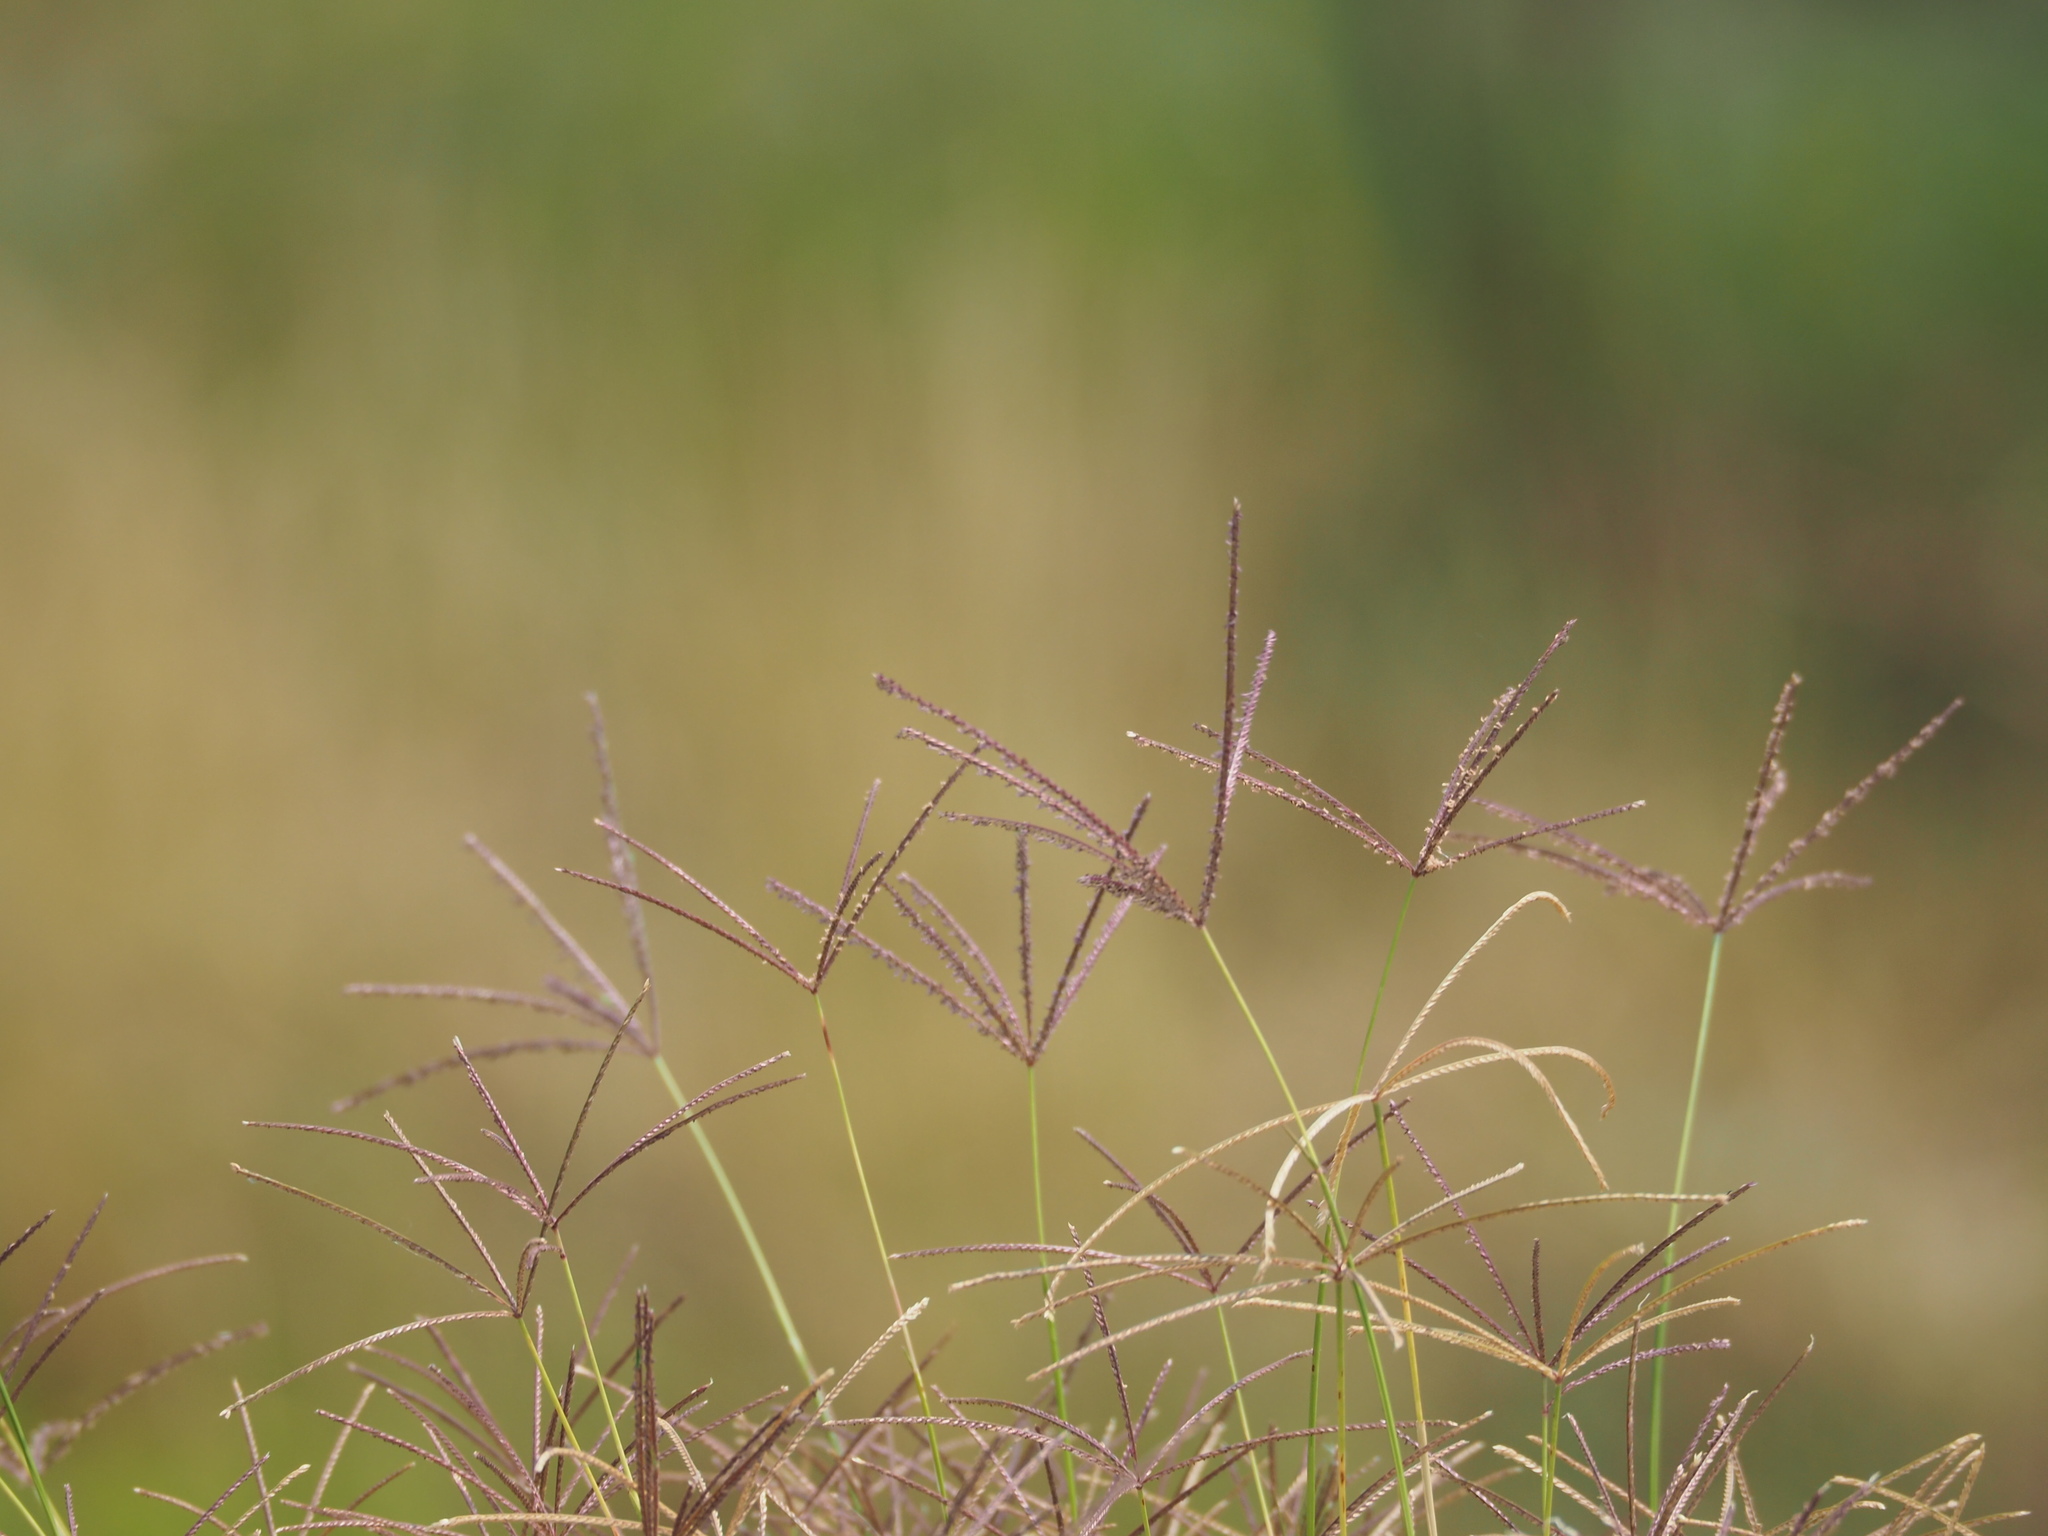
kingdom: Plantae
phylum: Tracheophyta
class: Liliopsida
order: Poales
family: Poaceae
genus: Cynodon
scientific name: Cynodon nlemfuensis
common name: African bermudagrass
